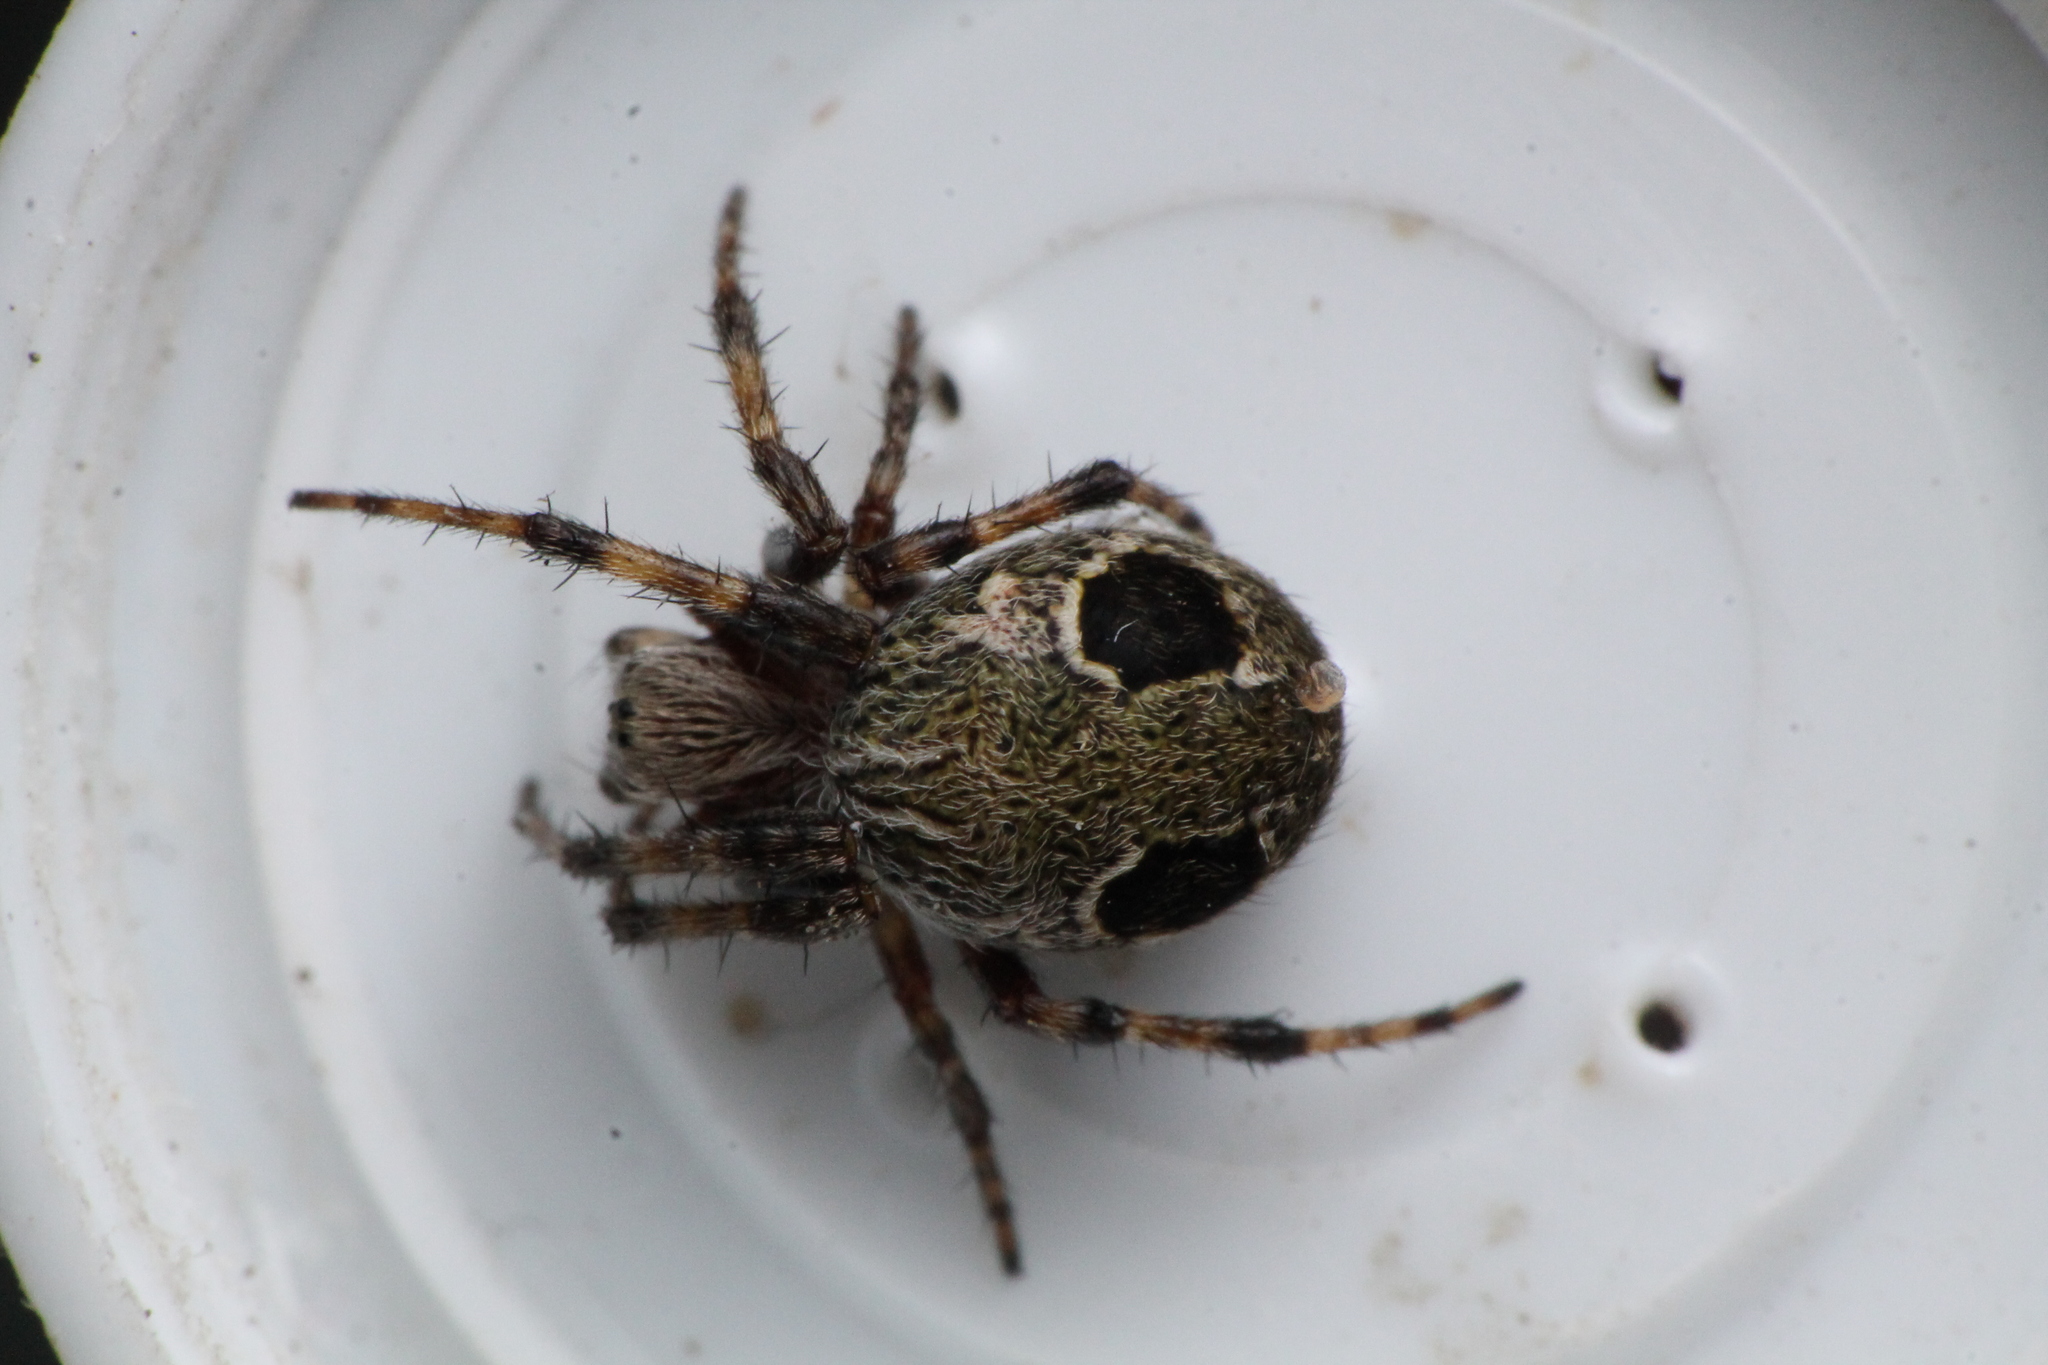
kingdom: Animalia
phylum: Arthropoda
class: Arachnida
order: Araneae
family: Araneidae
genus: Salsa
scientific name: Salsa fuliginata
